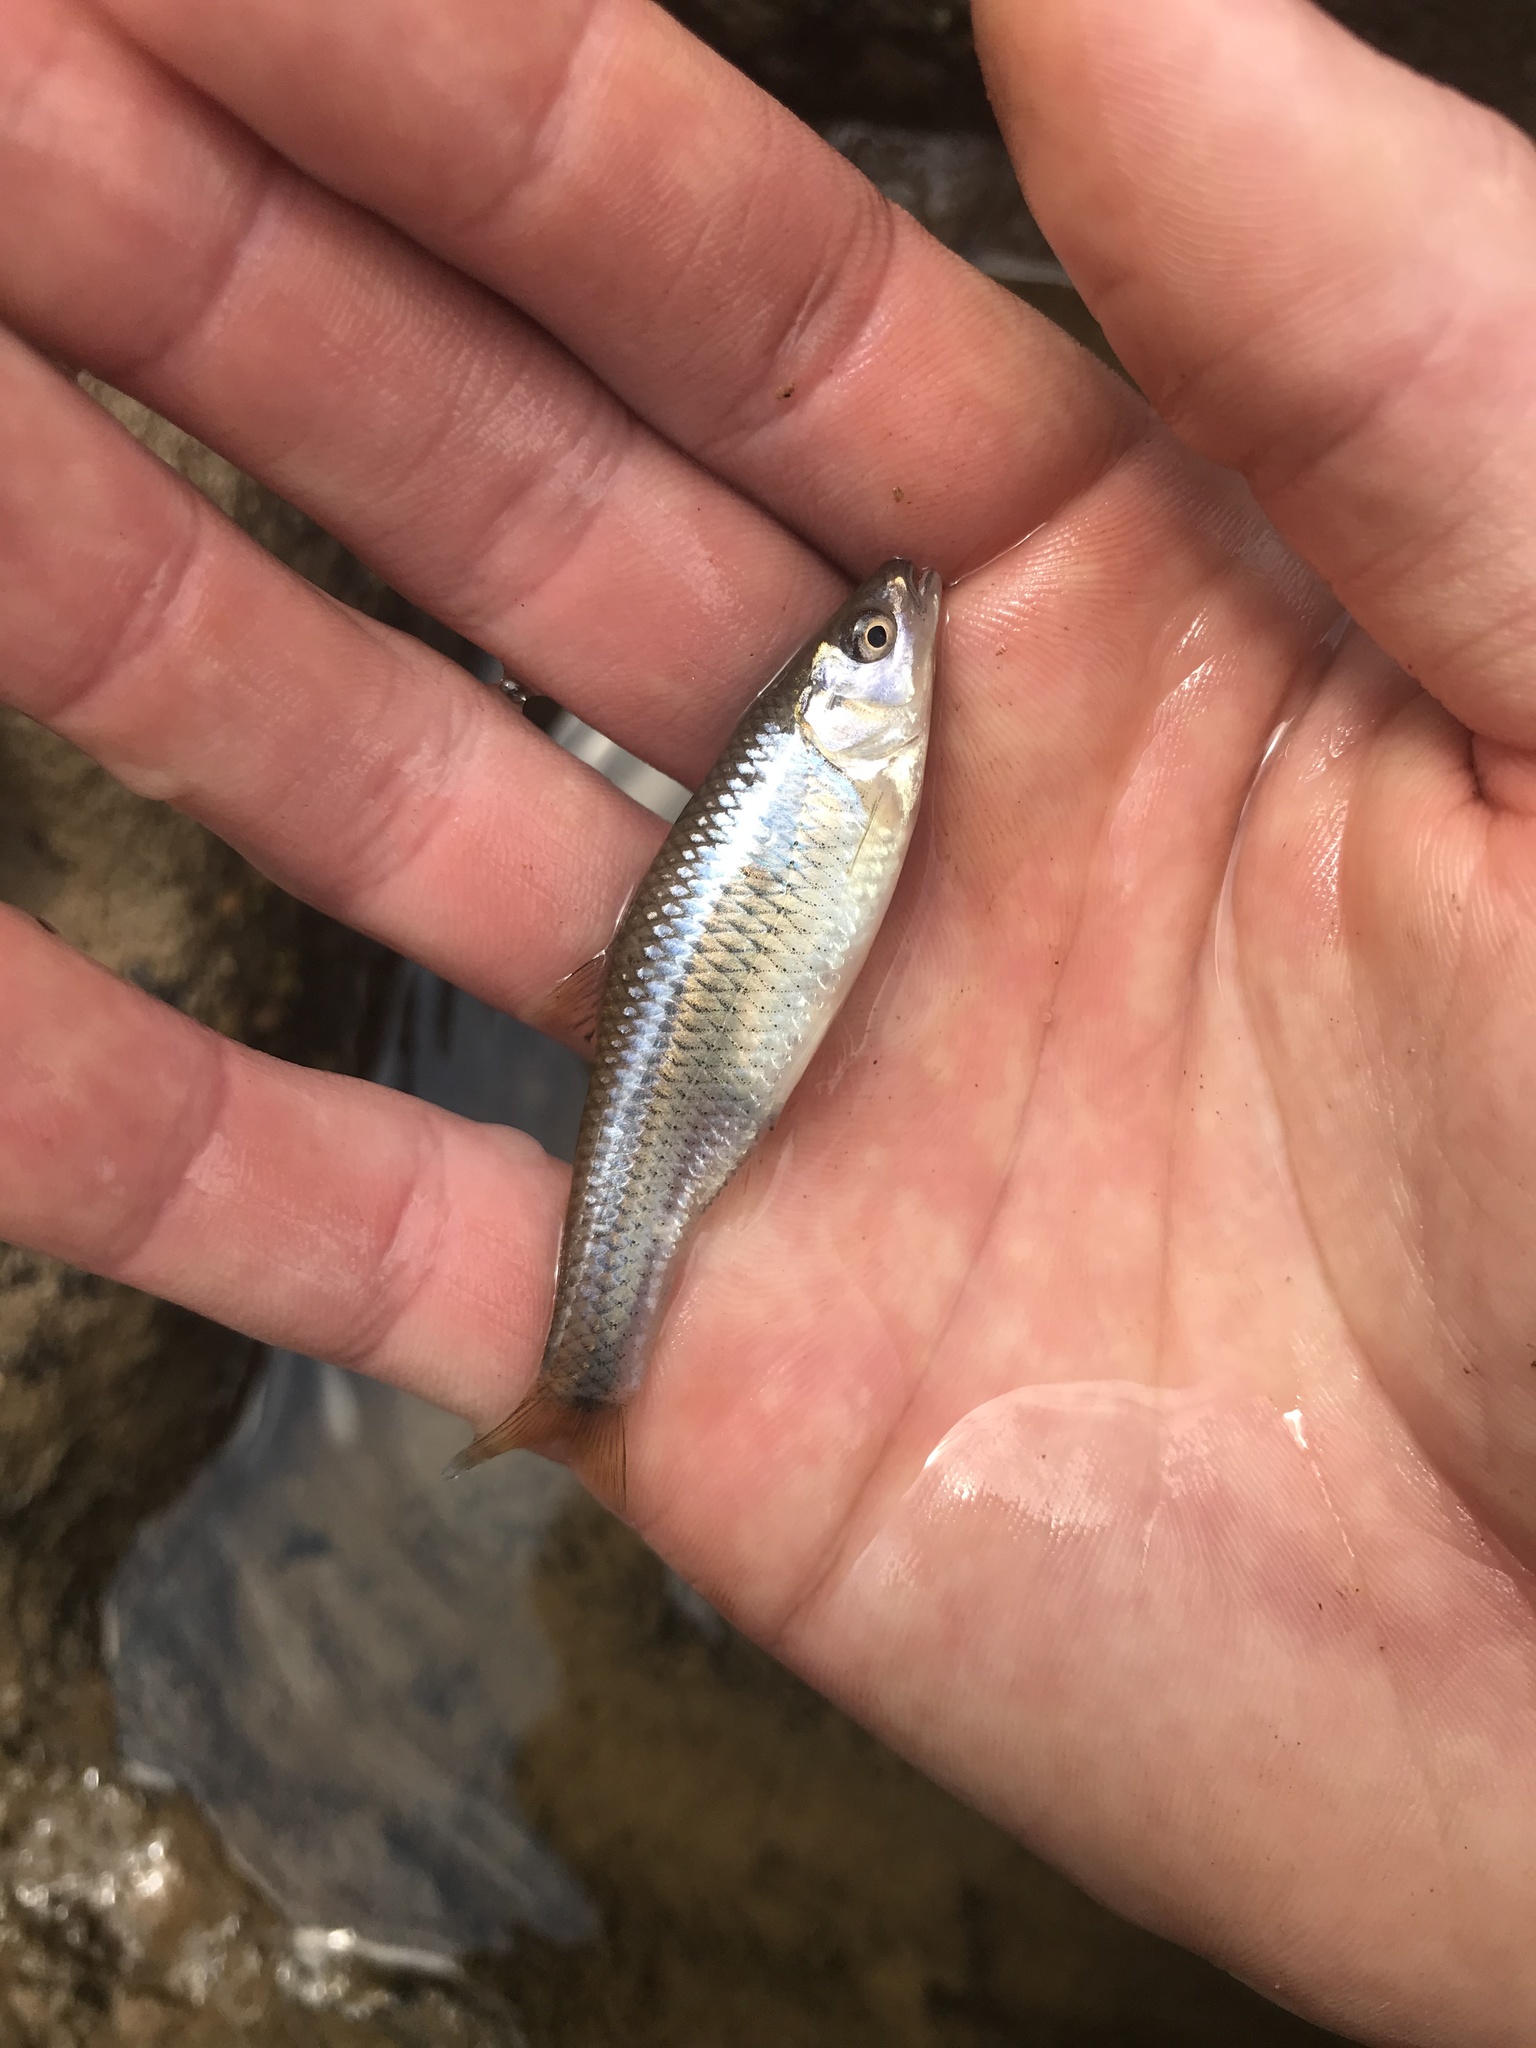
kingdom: Animalia
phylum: Chordata
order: Cypriniformes
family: Cyprinidae
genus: Cyprinella
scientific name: Cyprinella analostana
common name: Satinfin shiner
